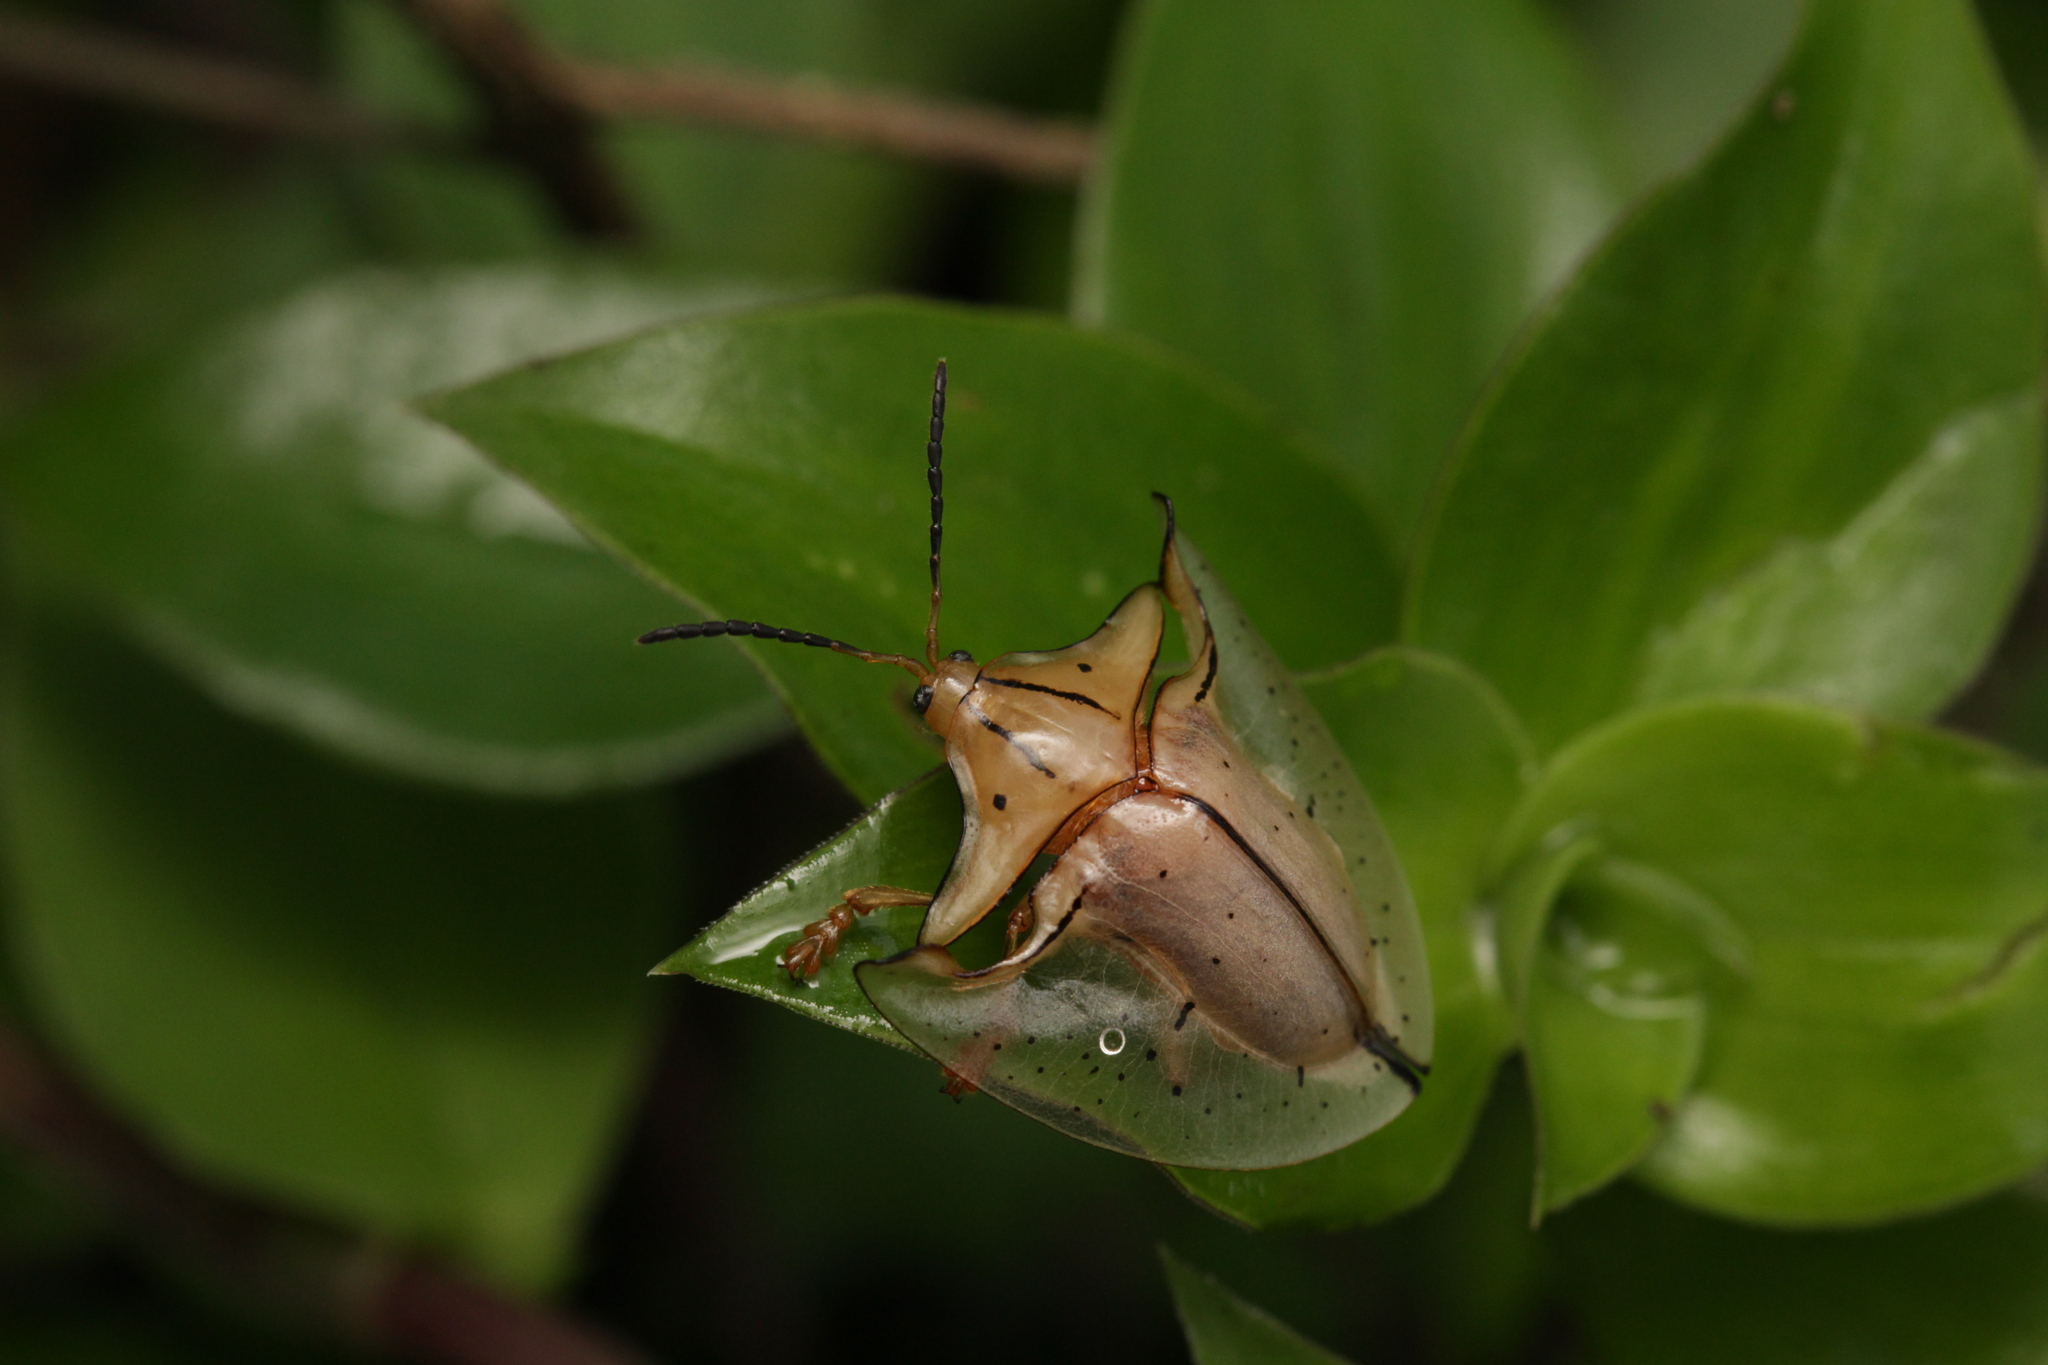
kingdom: Animalia
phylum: Arthropoda
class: Insecta
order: Coleoptera
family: Chrysomelidae
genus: Acromis
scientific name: Acromis sparsa
